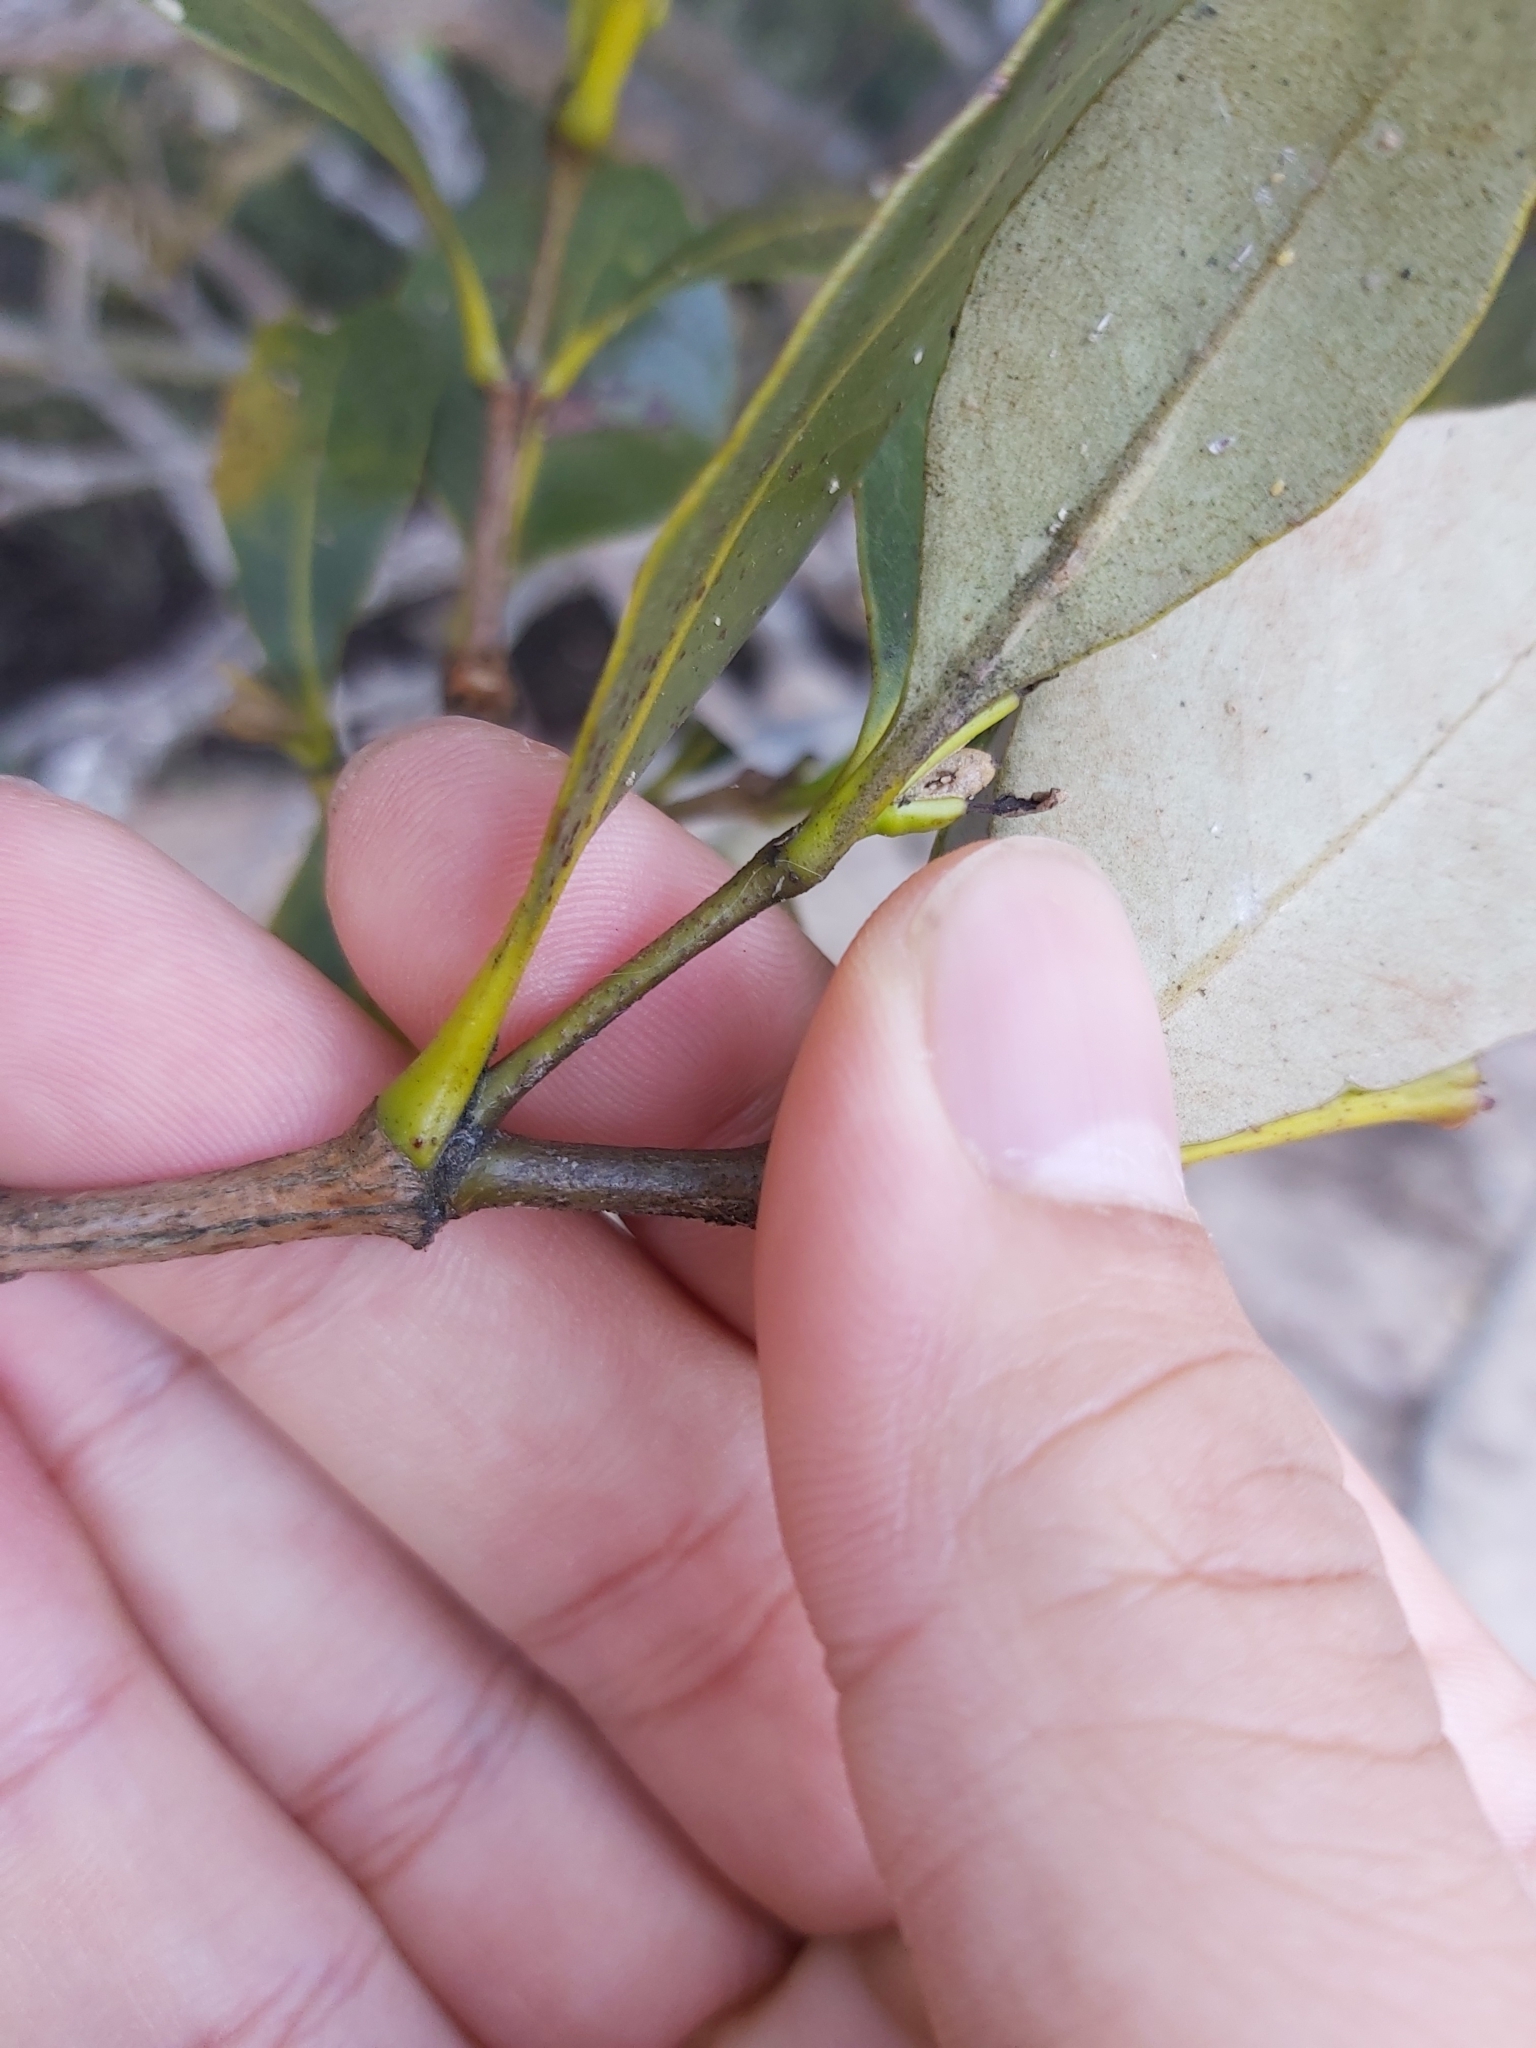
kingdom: Plantae
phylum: Tracheophyta
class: Magnoliopsida
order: Lamiales
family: Acanthaceae
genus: Avicennia
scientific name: Avicennia marina
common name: Gray mangrove
